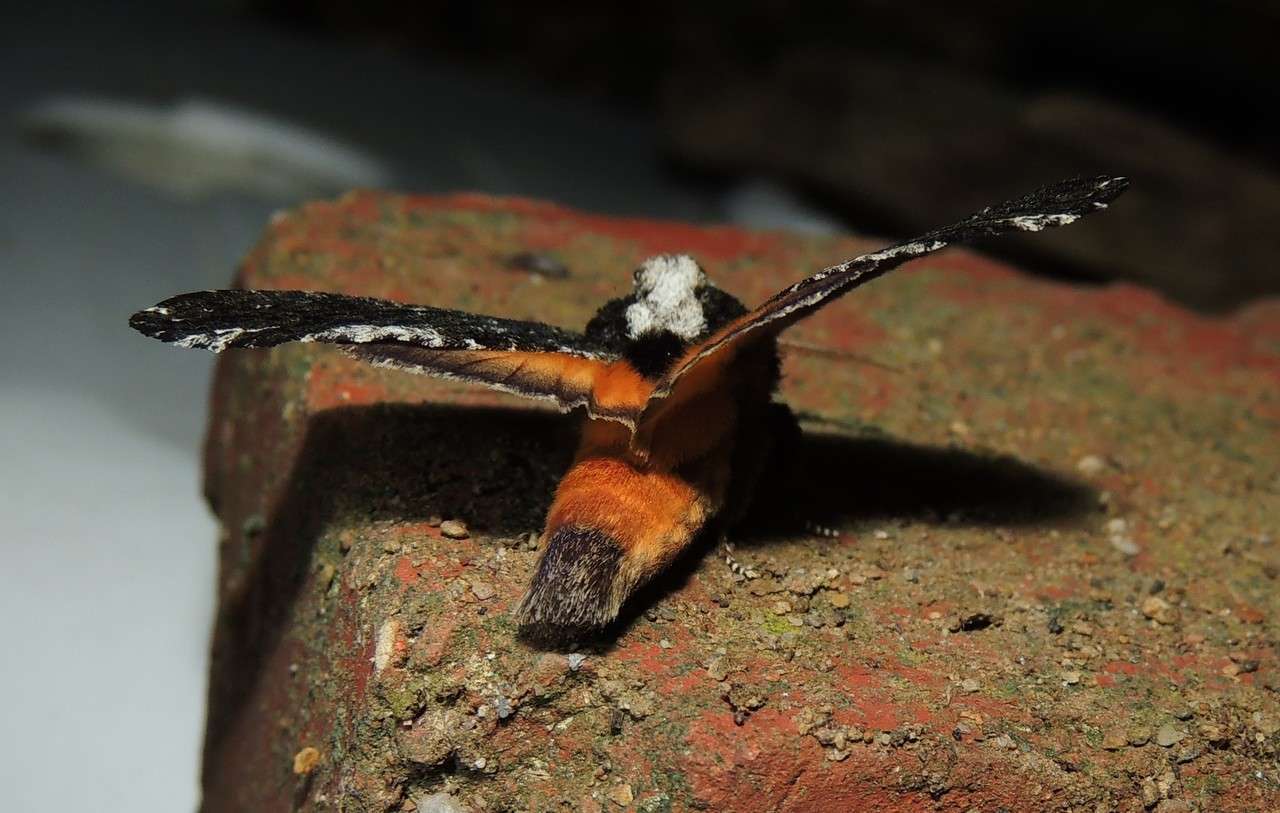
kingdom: Animalia
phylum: Arthropoda
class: Insecta
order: Lepidoptera
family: Notodontidae
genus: Neola
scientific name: Neola semiaurata
